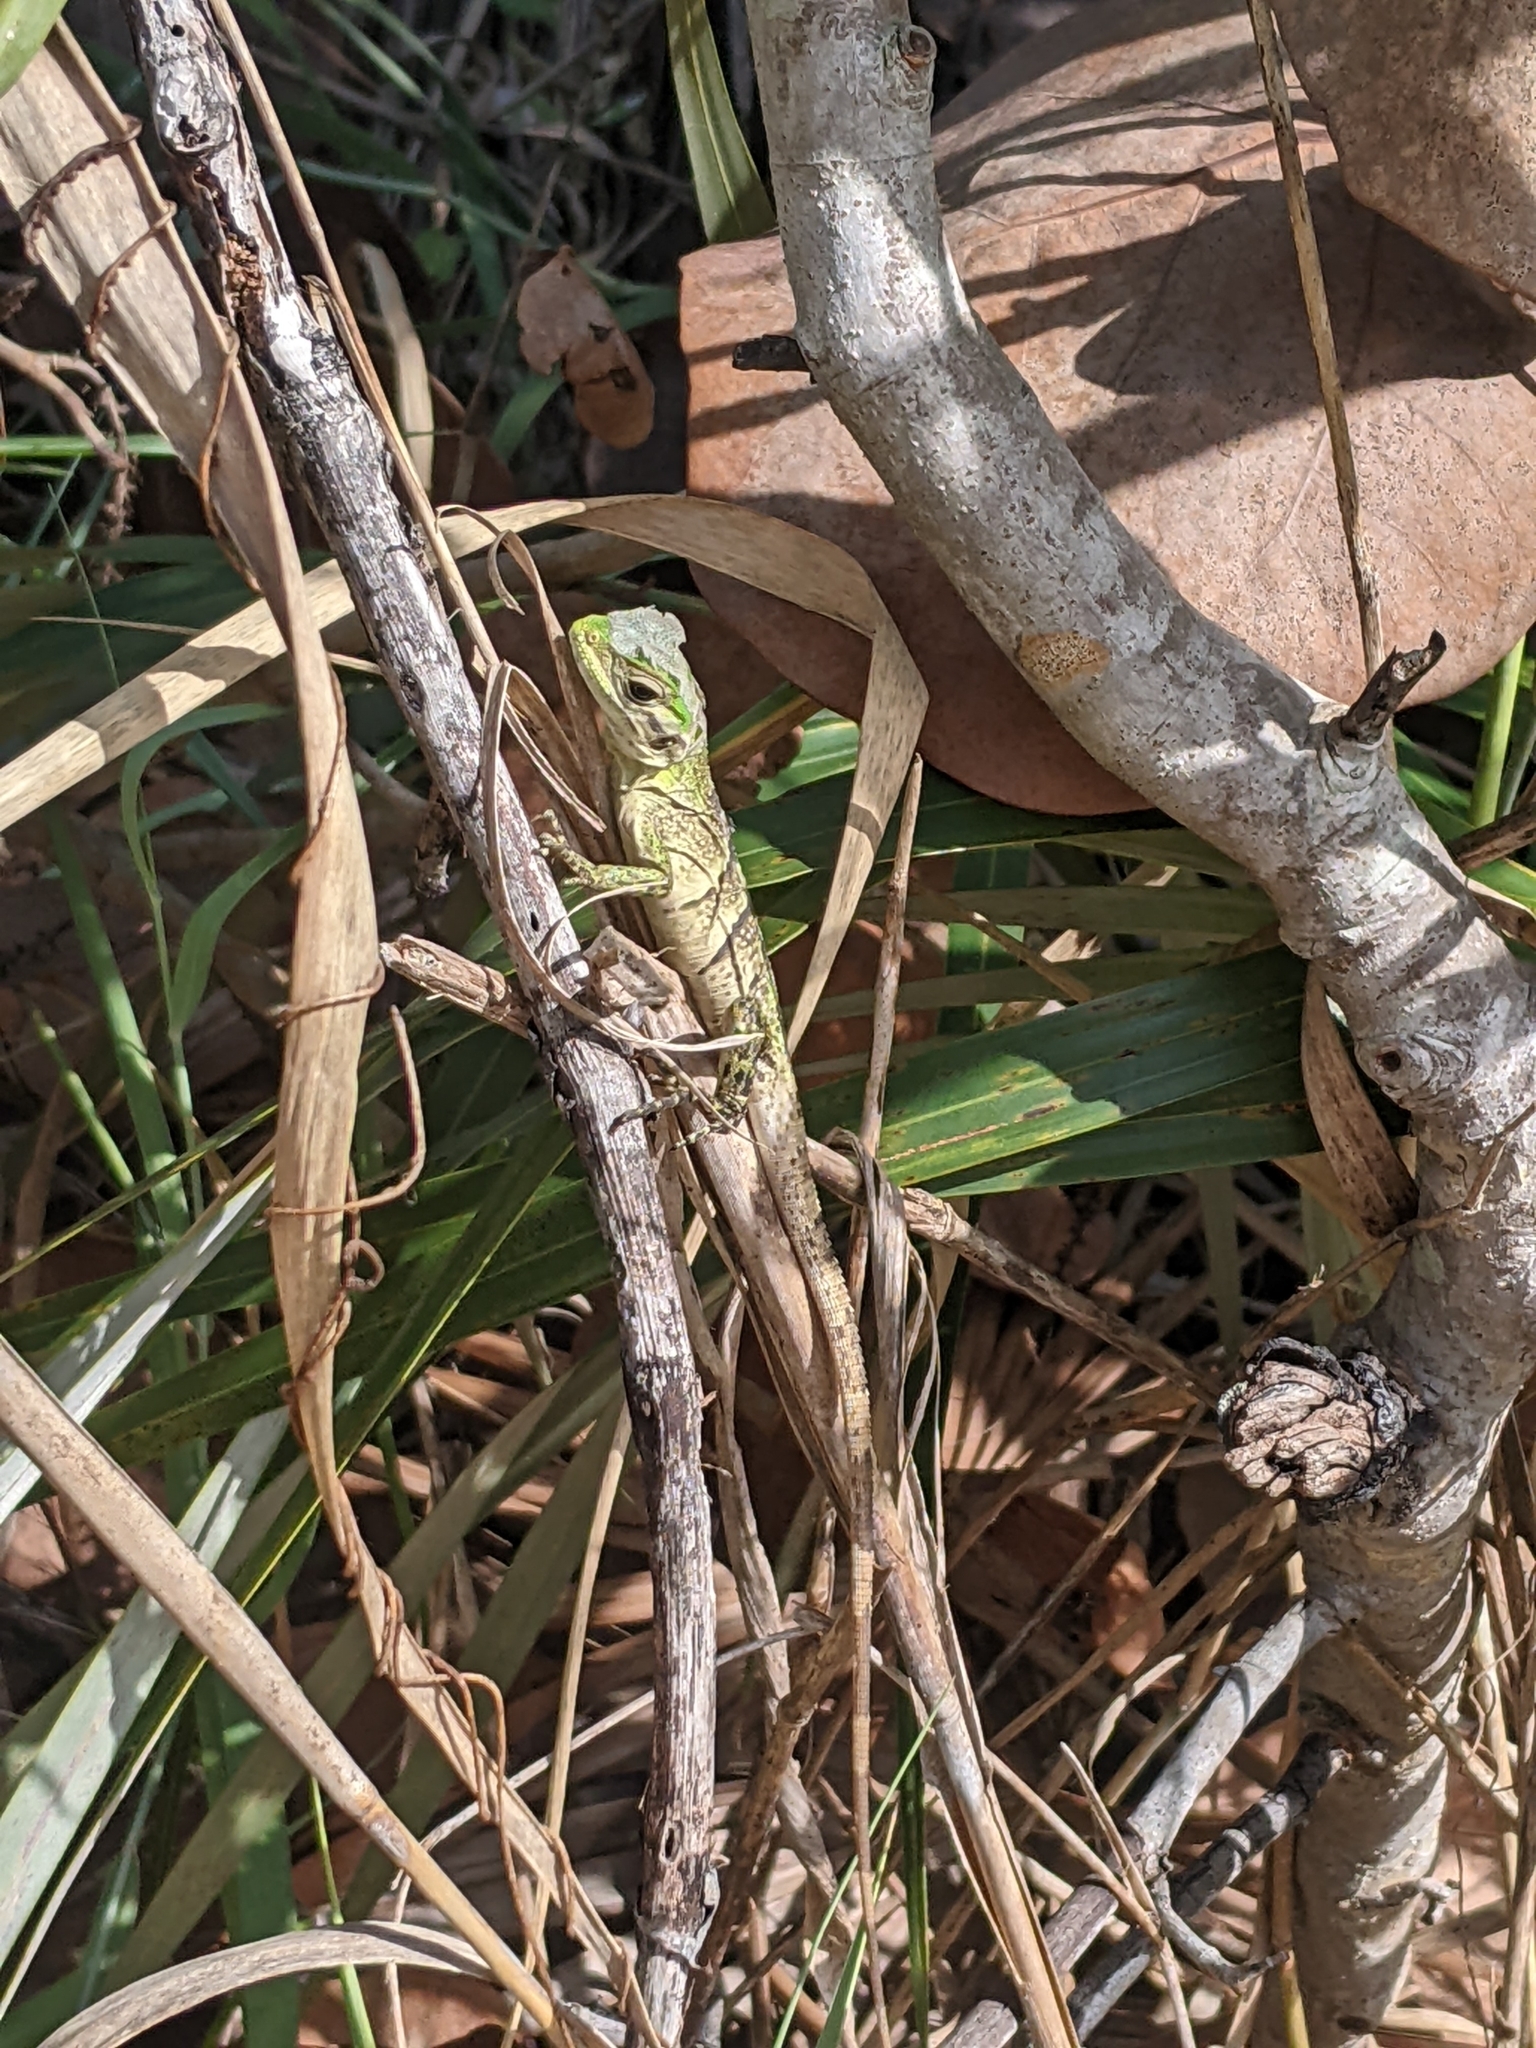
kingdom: Animalia
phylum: Chordata
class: Squamata
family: Iguanidae
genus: Ctenosaura
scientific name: Ctenosaura similis
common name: Black spiny-tailed iguana
